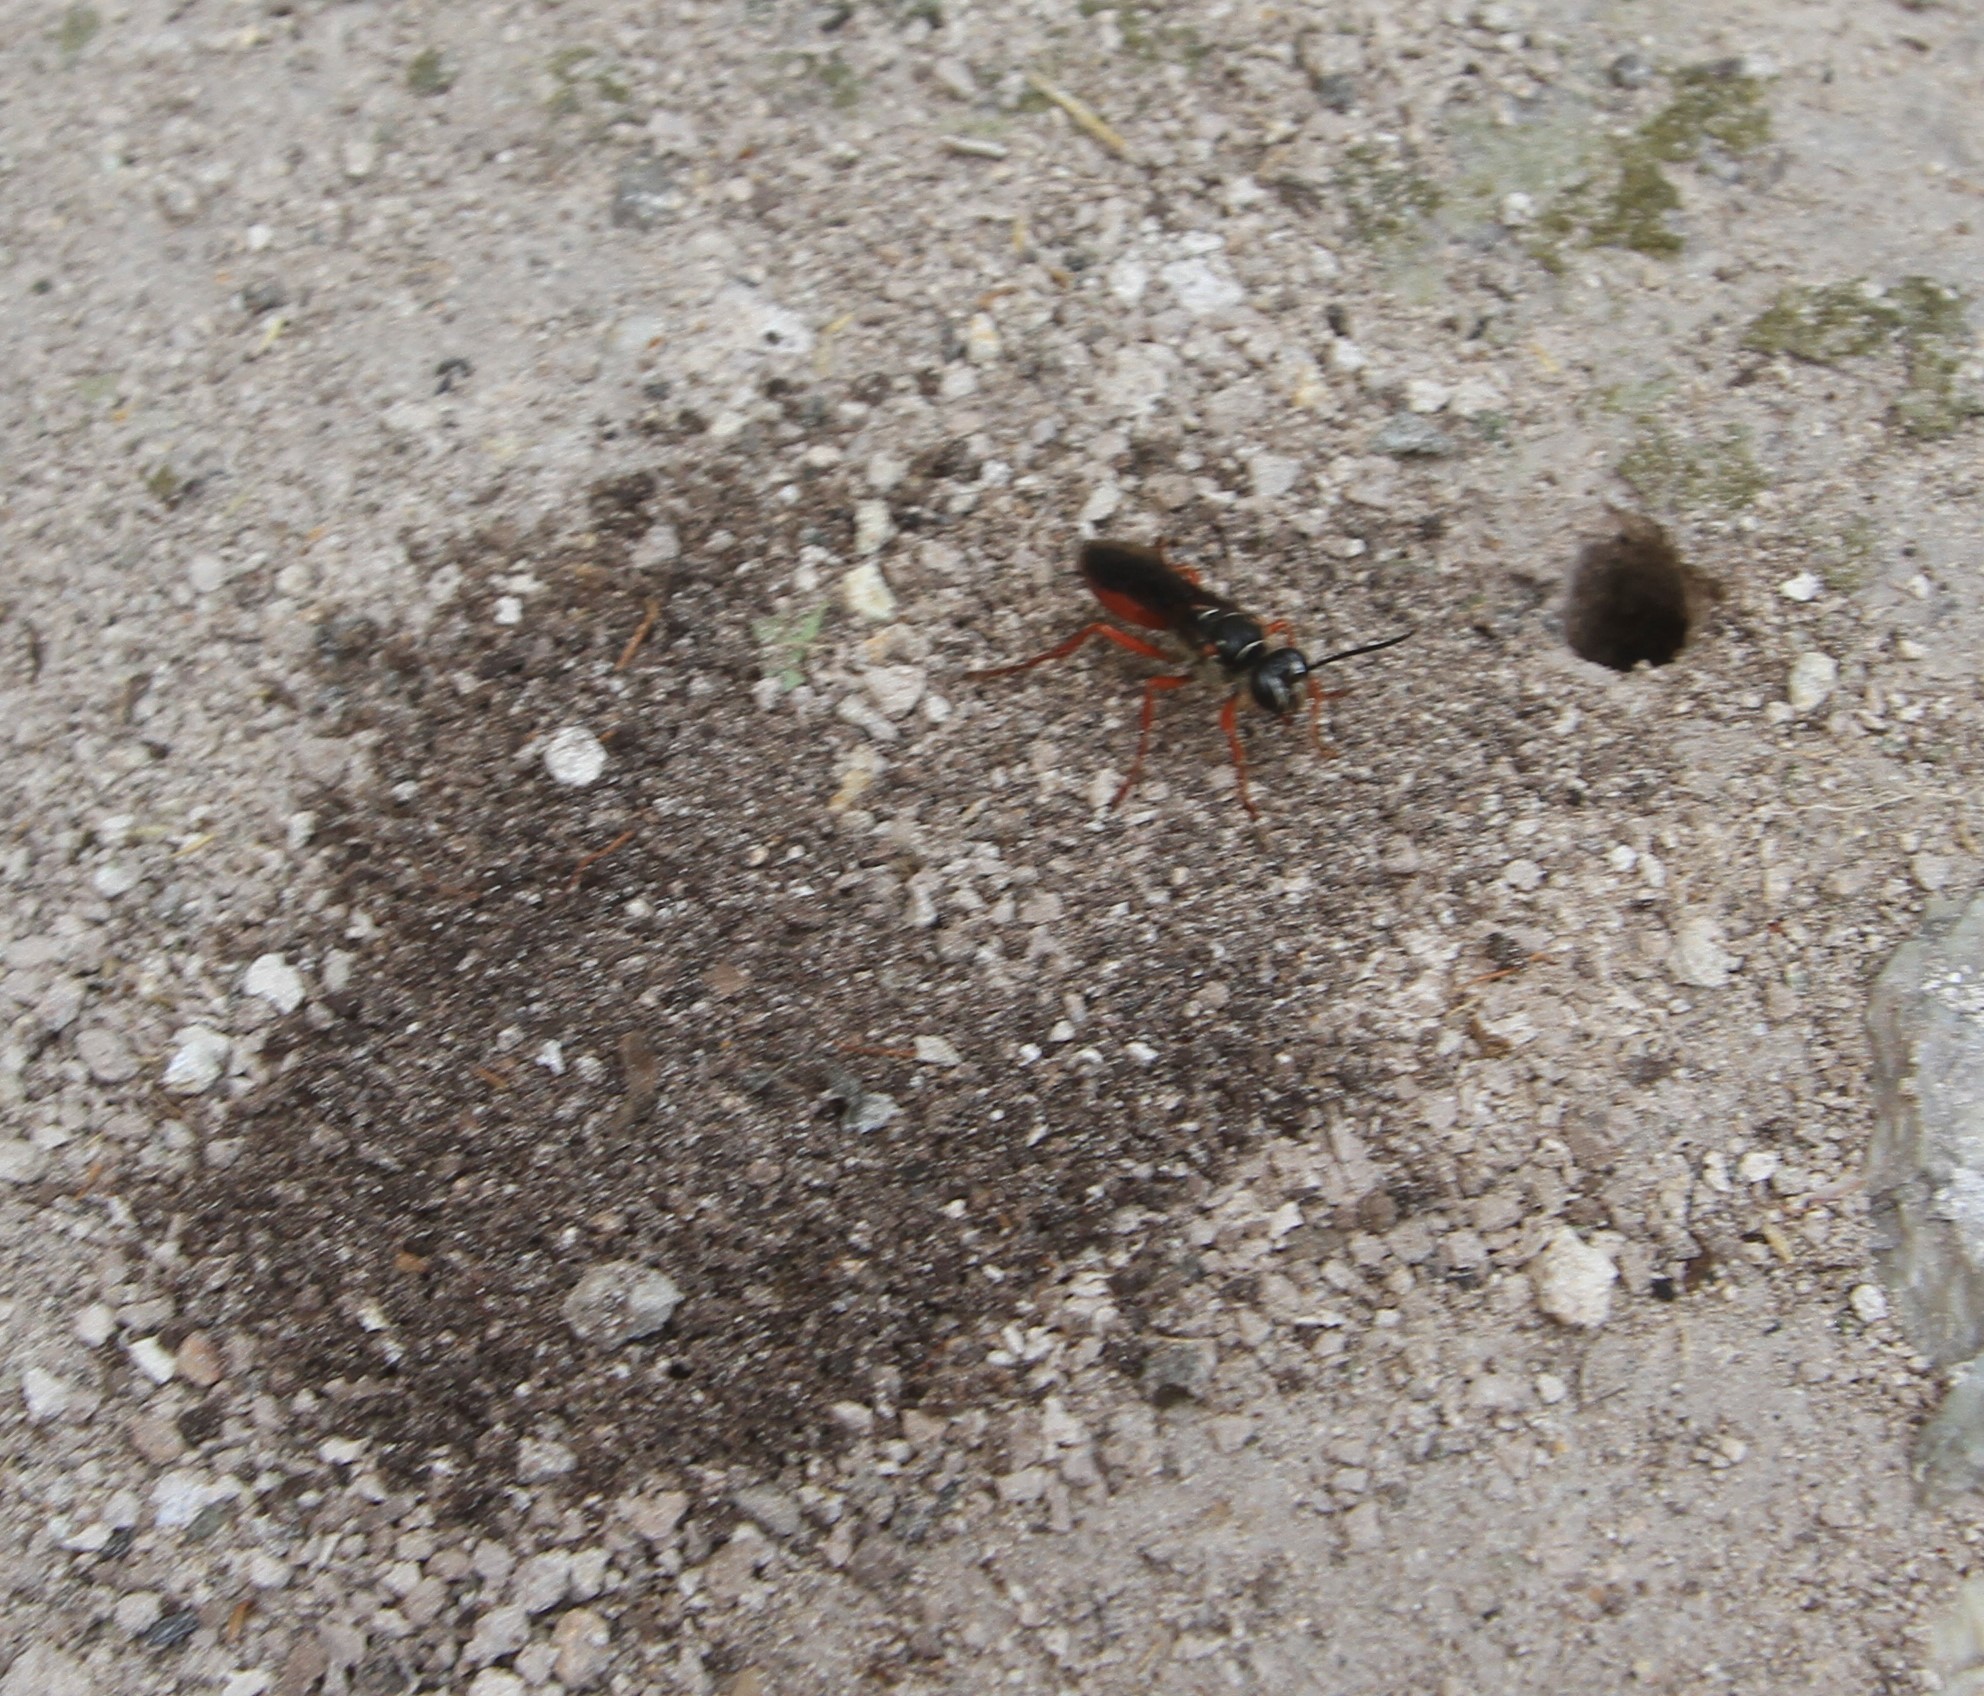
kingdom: Animalia
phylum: Arthropoda
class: Insecta
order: Hymenoptera
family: Sphecidae
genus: Sphex
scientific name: Sphex resinipes
